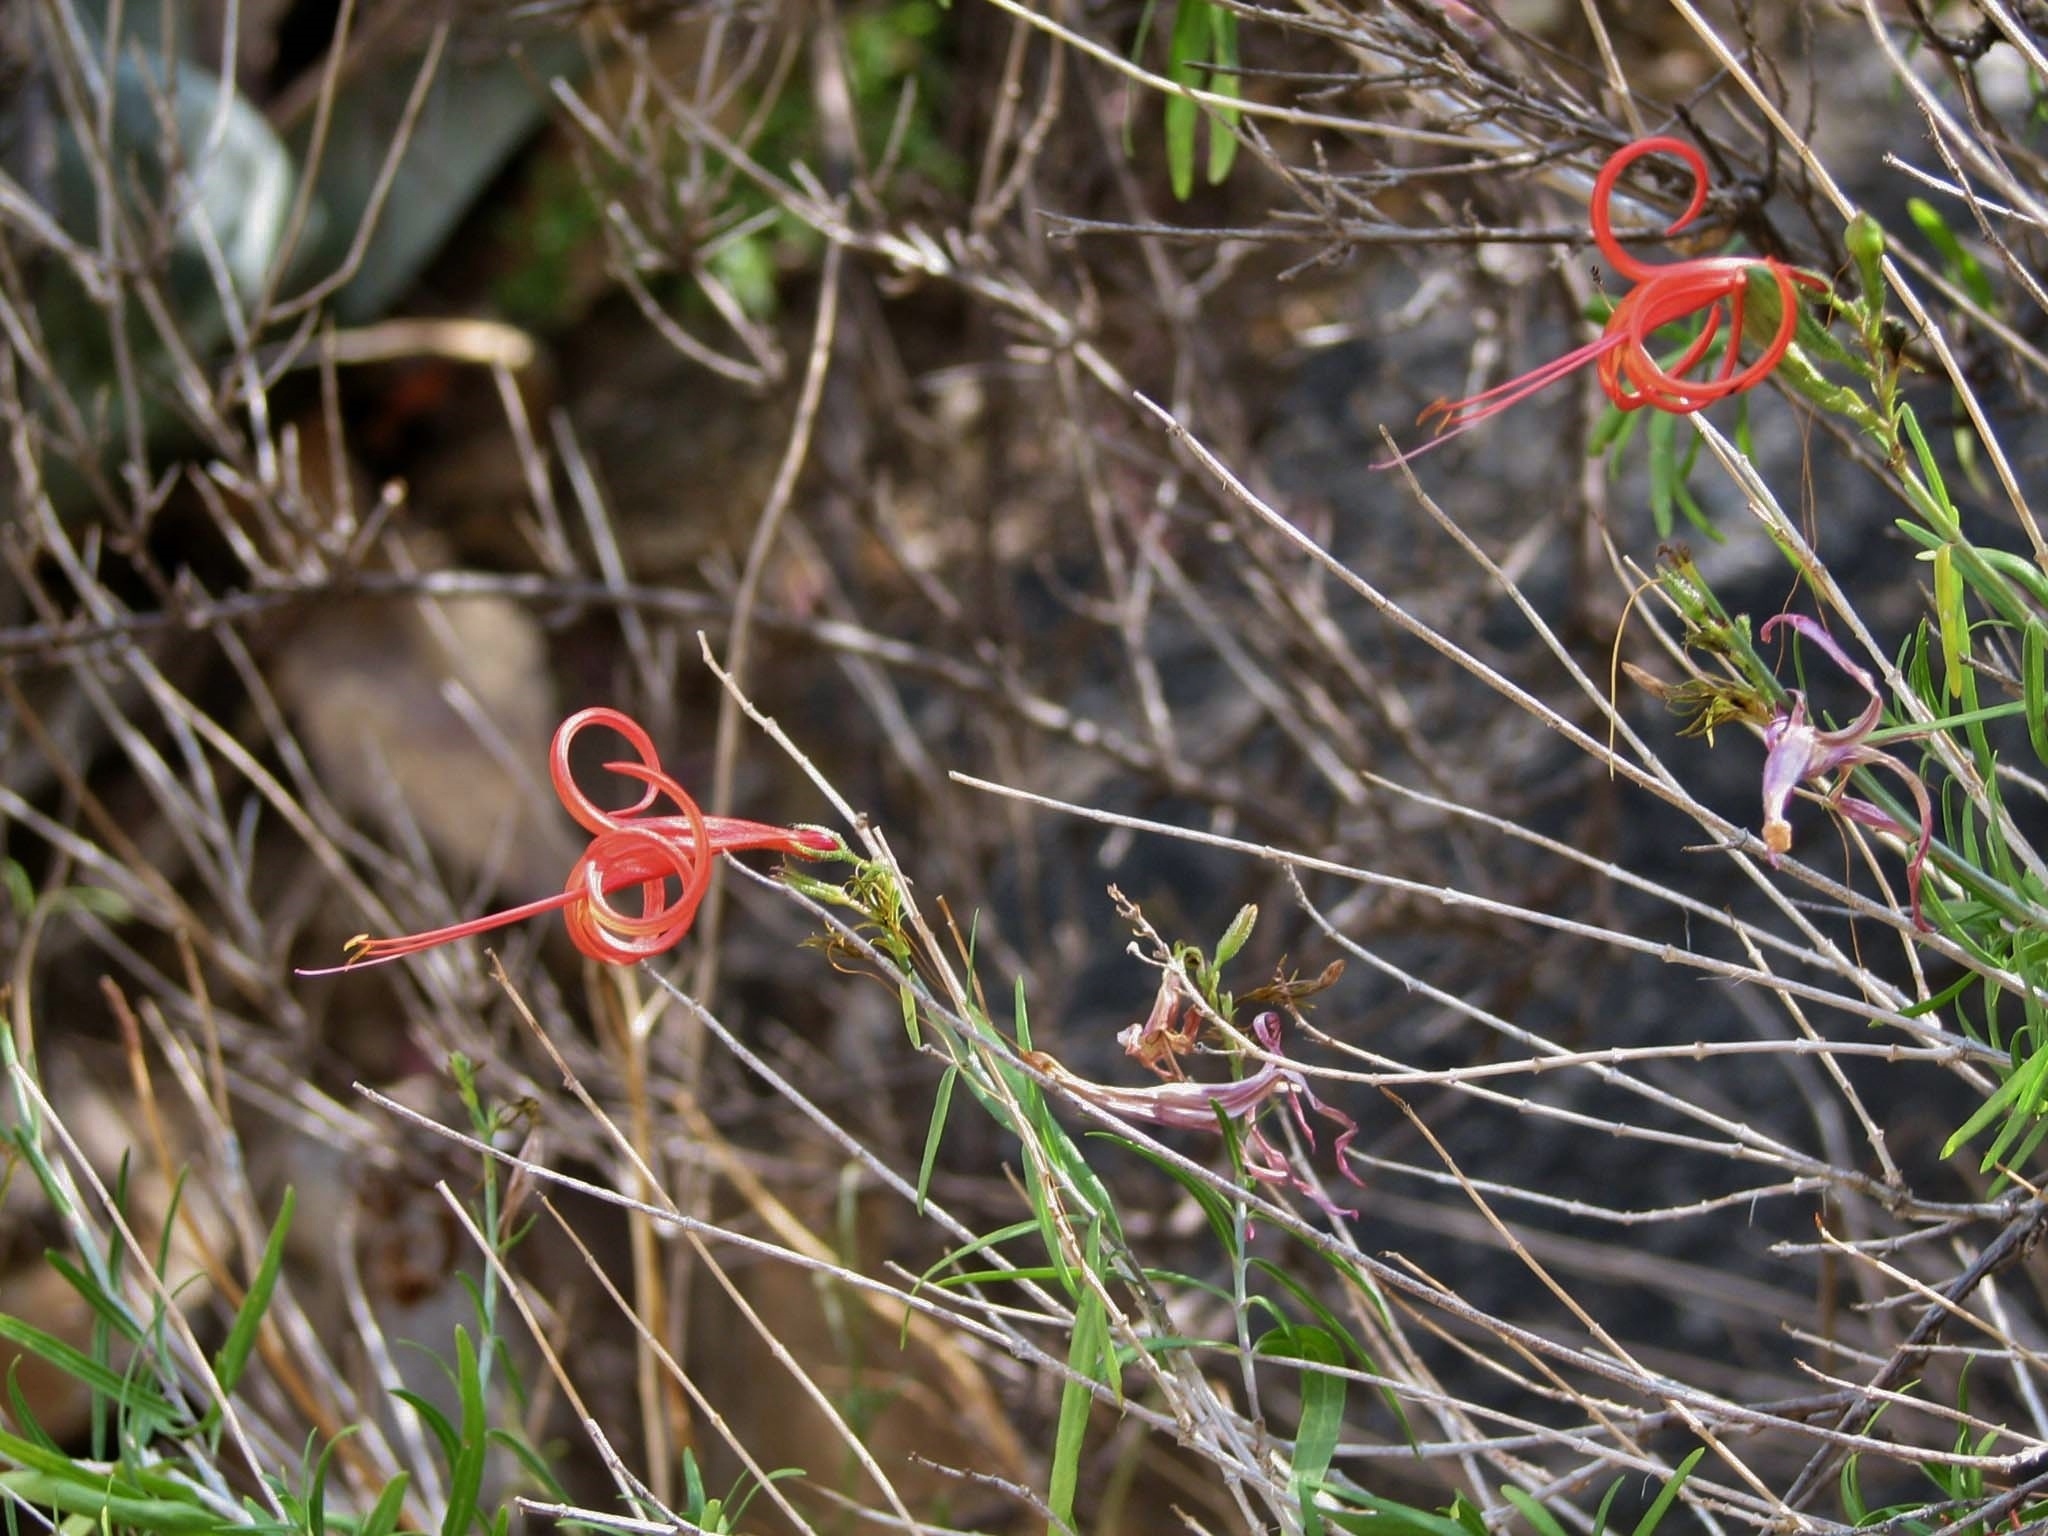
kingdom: Plantae
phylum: Tracheophyta
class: Magnoliopsida
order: Lamiales
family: Acanthaceae
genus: Anisacanthus
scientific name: Anisacanthus linearis
